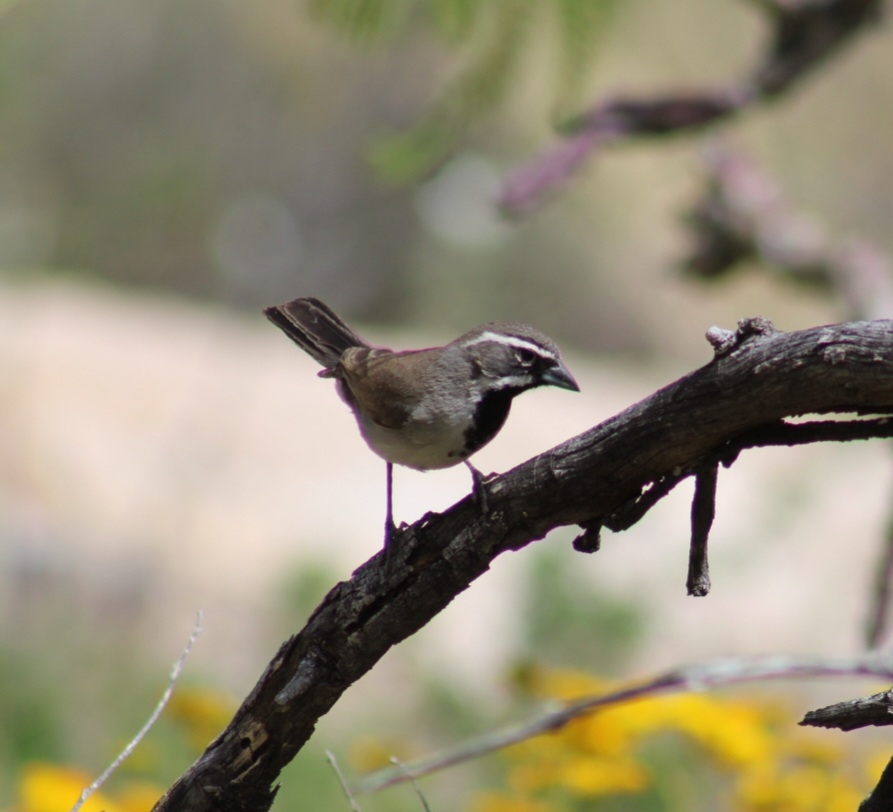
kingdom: Animalia
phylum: Chordata
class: Aves
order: Passeriformes
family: Passerellidae
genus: Amphispiza
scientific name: Amphispiza bilineata
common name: Black-throated sparrow
